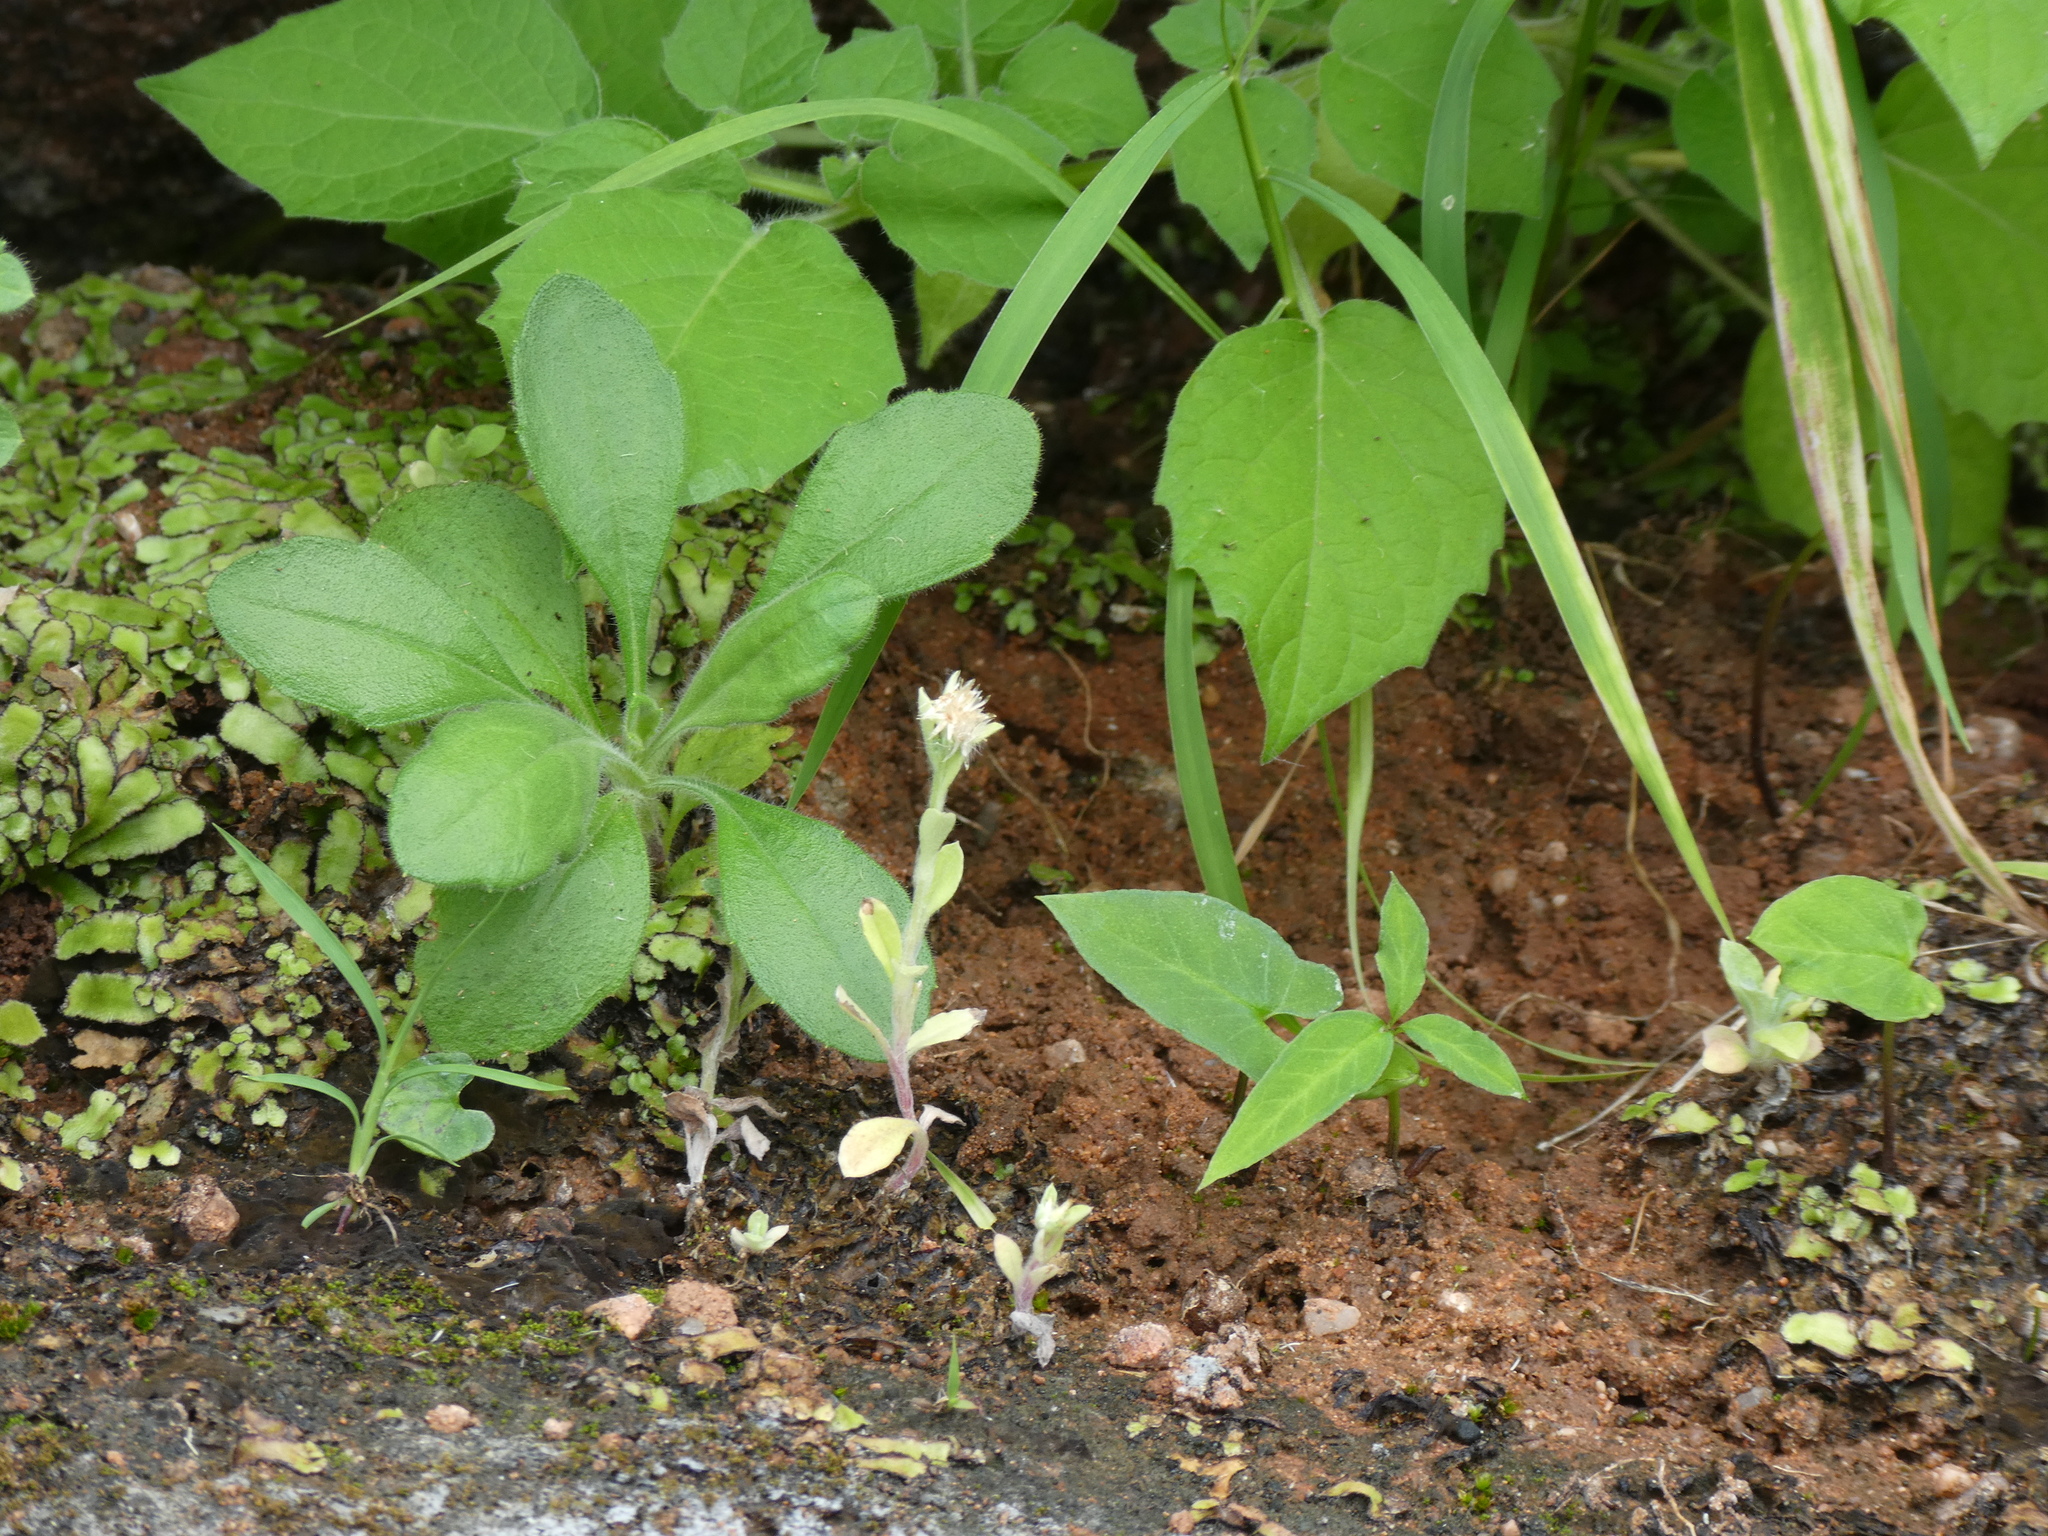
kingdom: Plantae
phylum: Tracheophyta
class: Magnoliopsida
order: Asterales
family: Asteraceae
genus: Euchiton
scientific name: Euchiton japonicus
